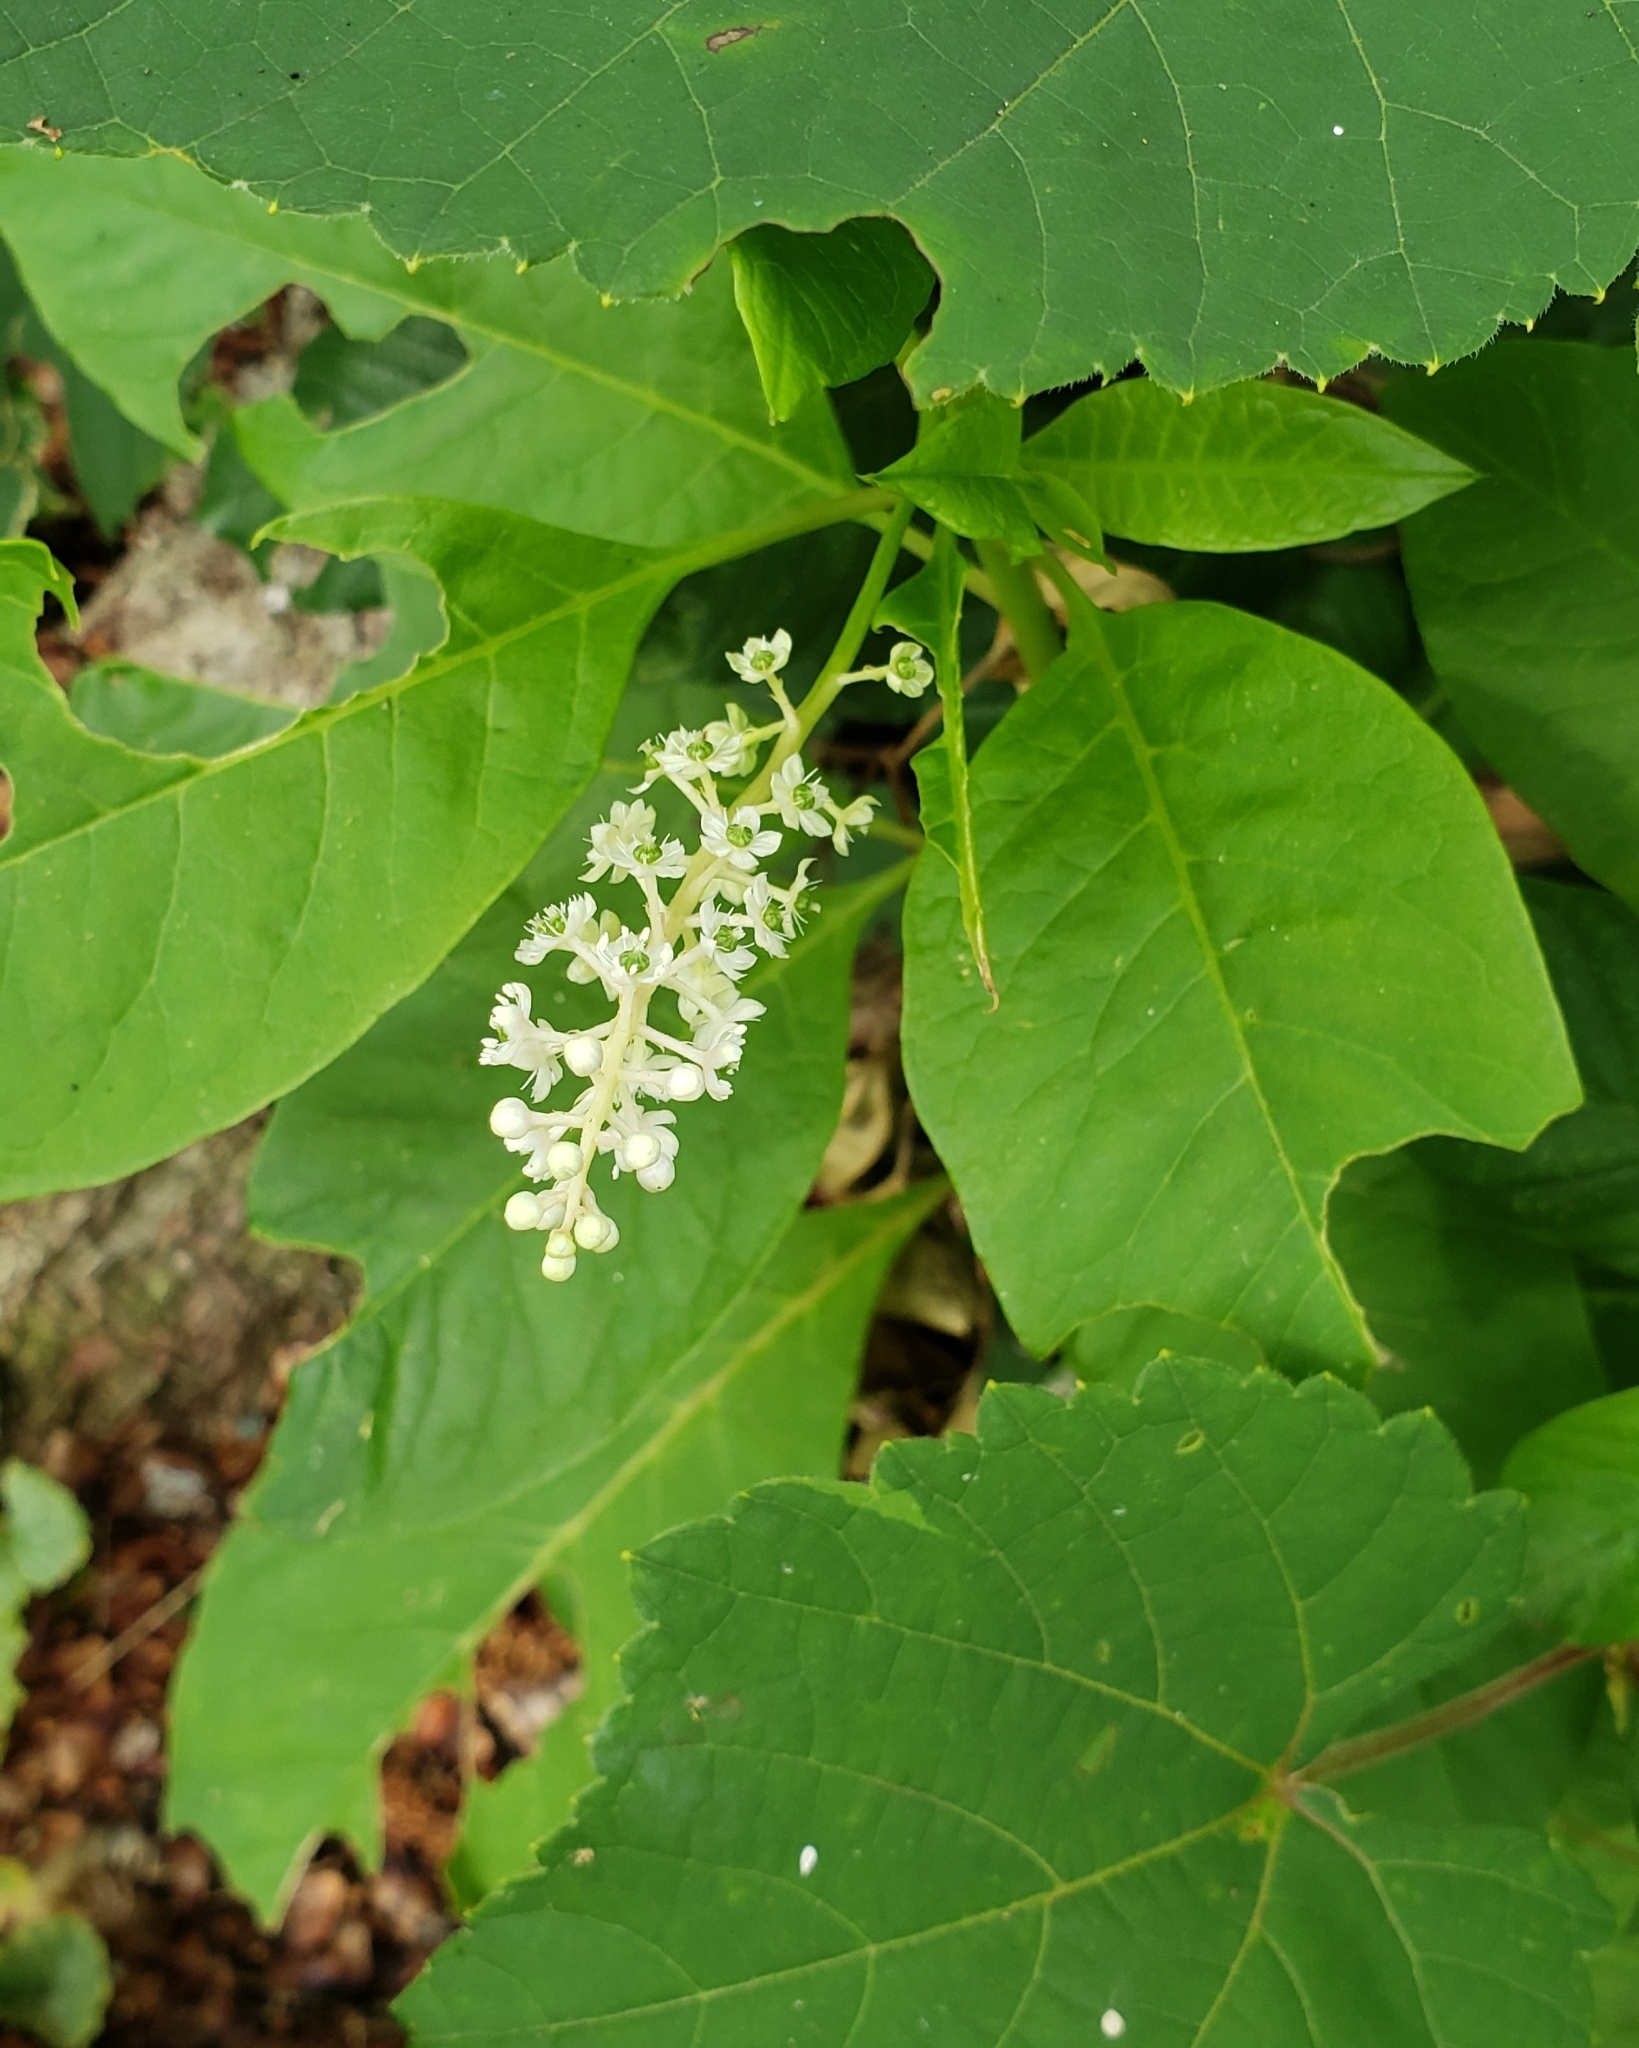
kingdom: Plantae
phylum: Tracheophyta
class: Magnoliopsida
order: Caryophyllales
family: Phytolaccaceae
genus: Phytolacca
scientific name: Phytolacca americana
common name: American pokeweed
